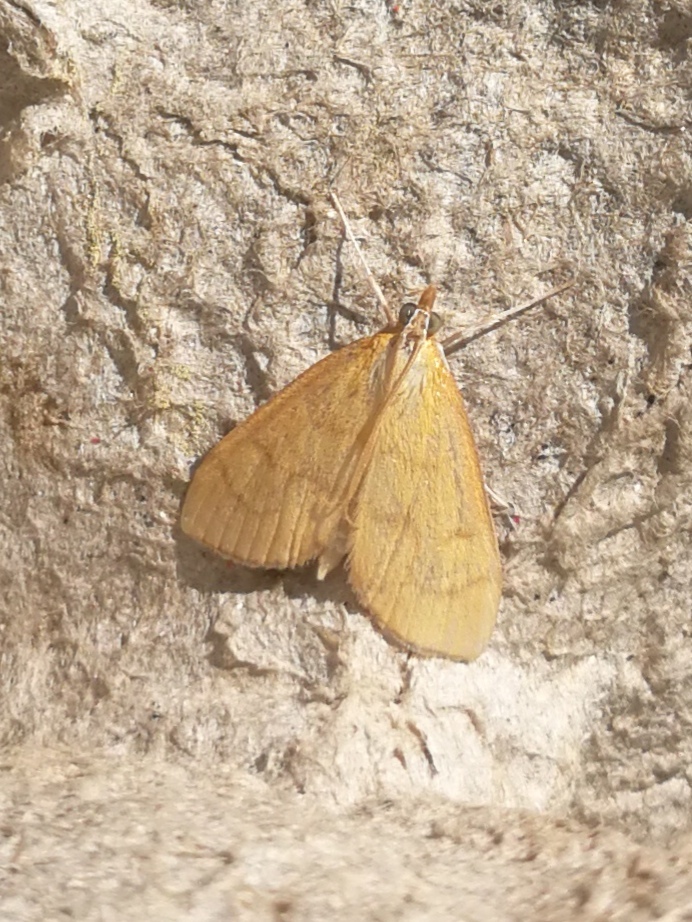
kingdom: Animalia
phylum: Arthropoda
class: Insecta
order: Lepidoptera
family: Crambidae
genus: Anania
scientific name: Anania crocealis
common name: Ochreous pearl
